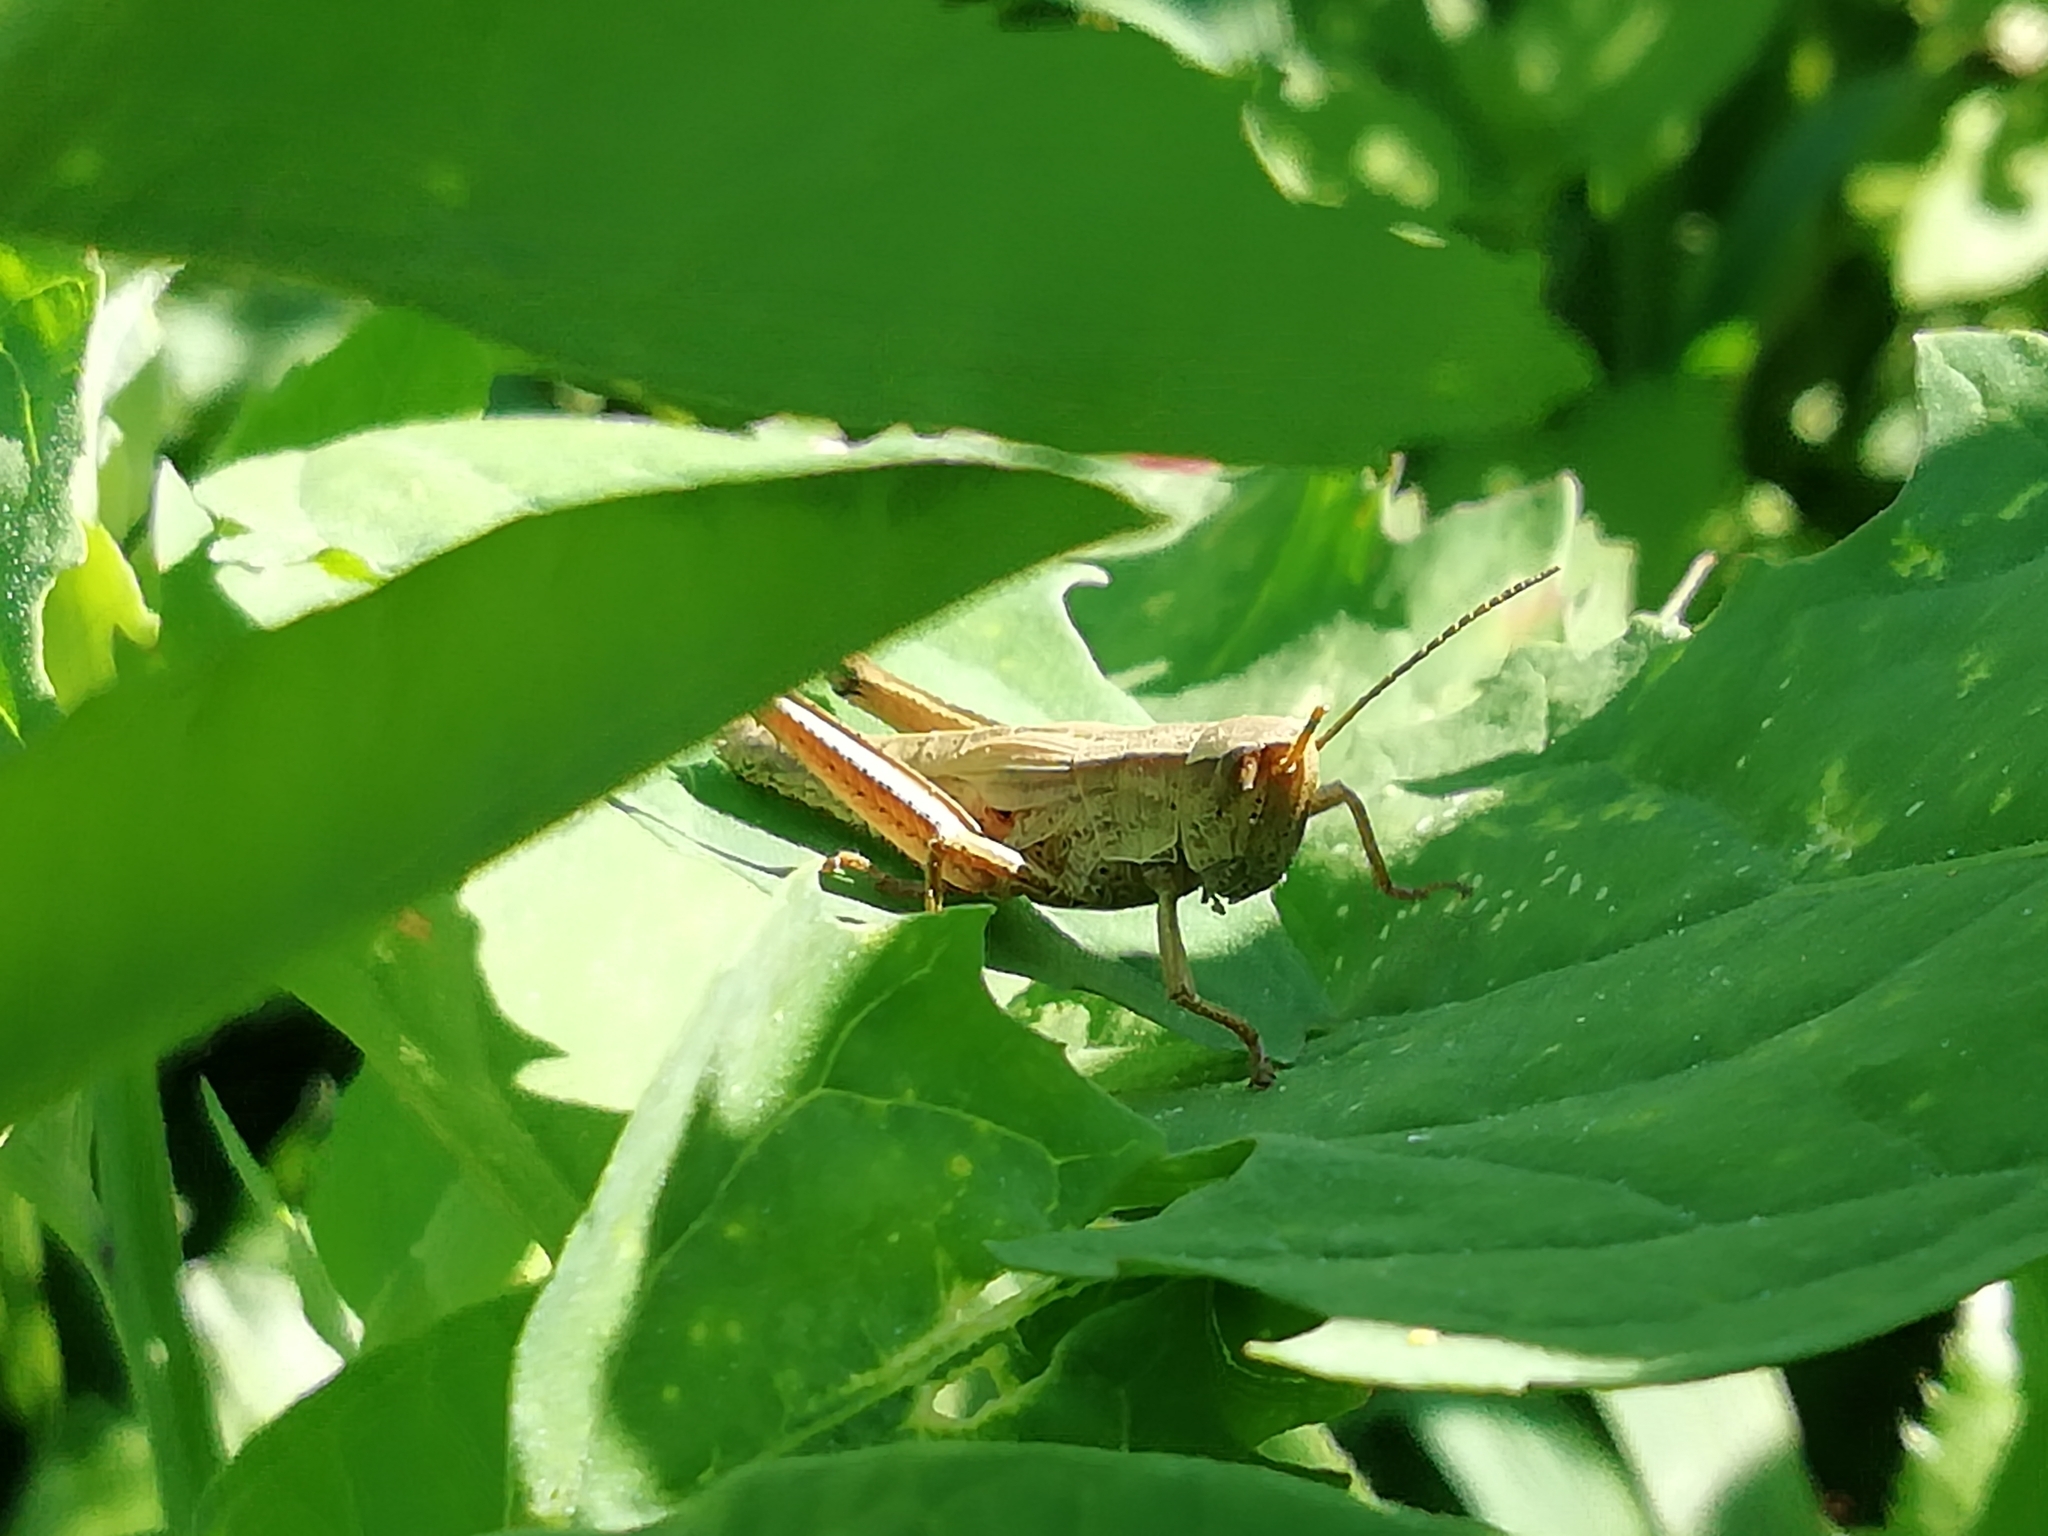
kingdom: Animalia
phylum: Arthropoda
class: Insecta
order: Orthoptera
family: Acrididae
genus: Chrysochraon
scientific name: Chrysochraon dispar
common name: Large gold grasshopper
